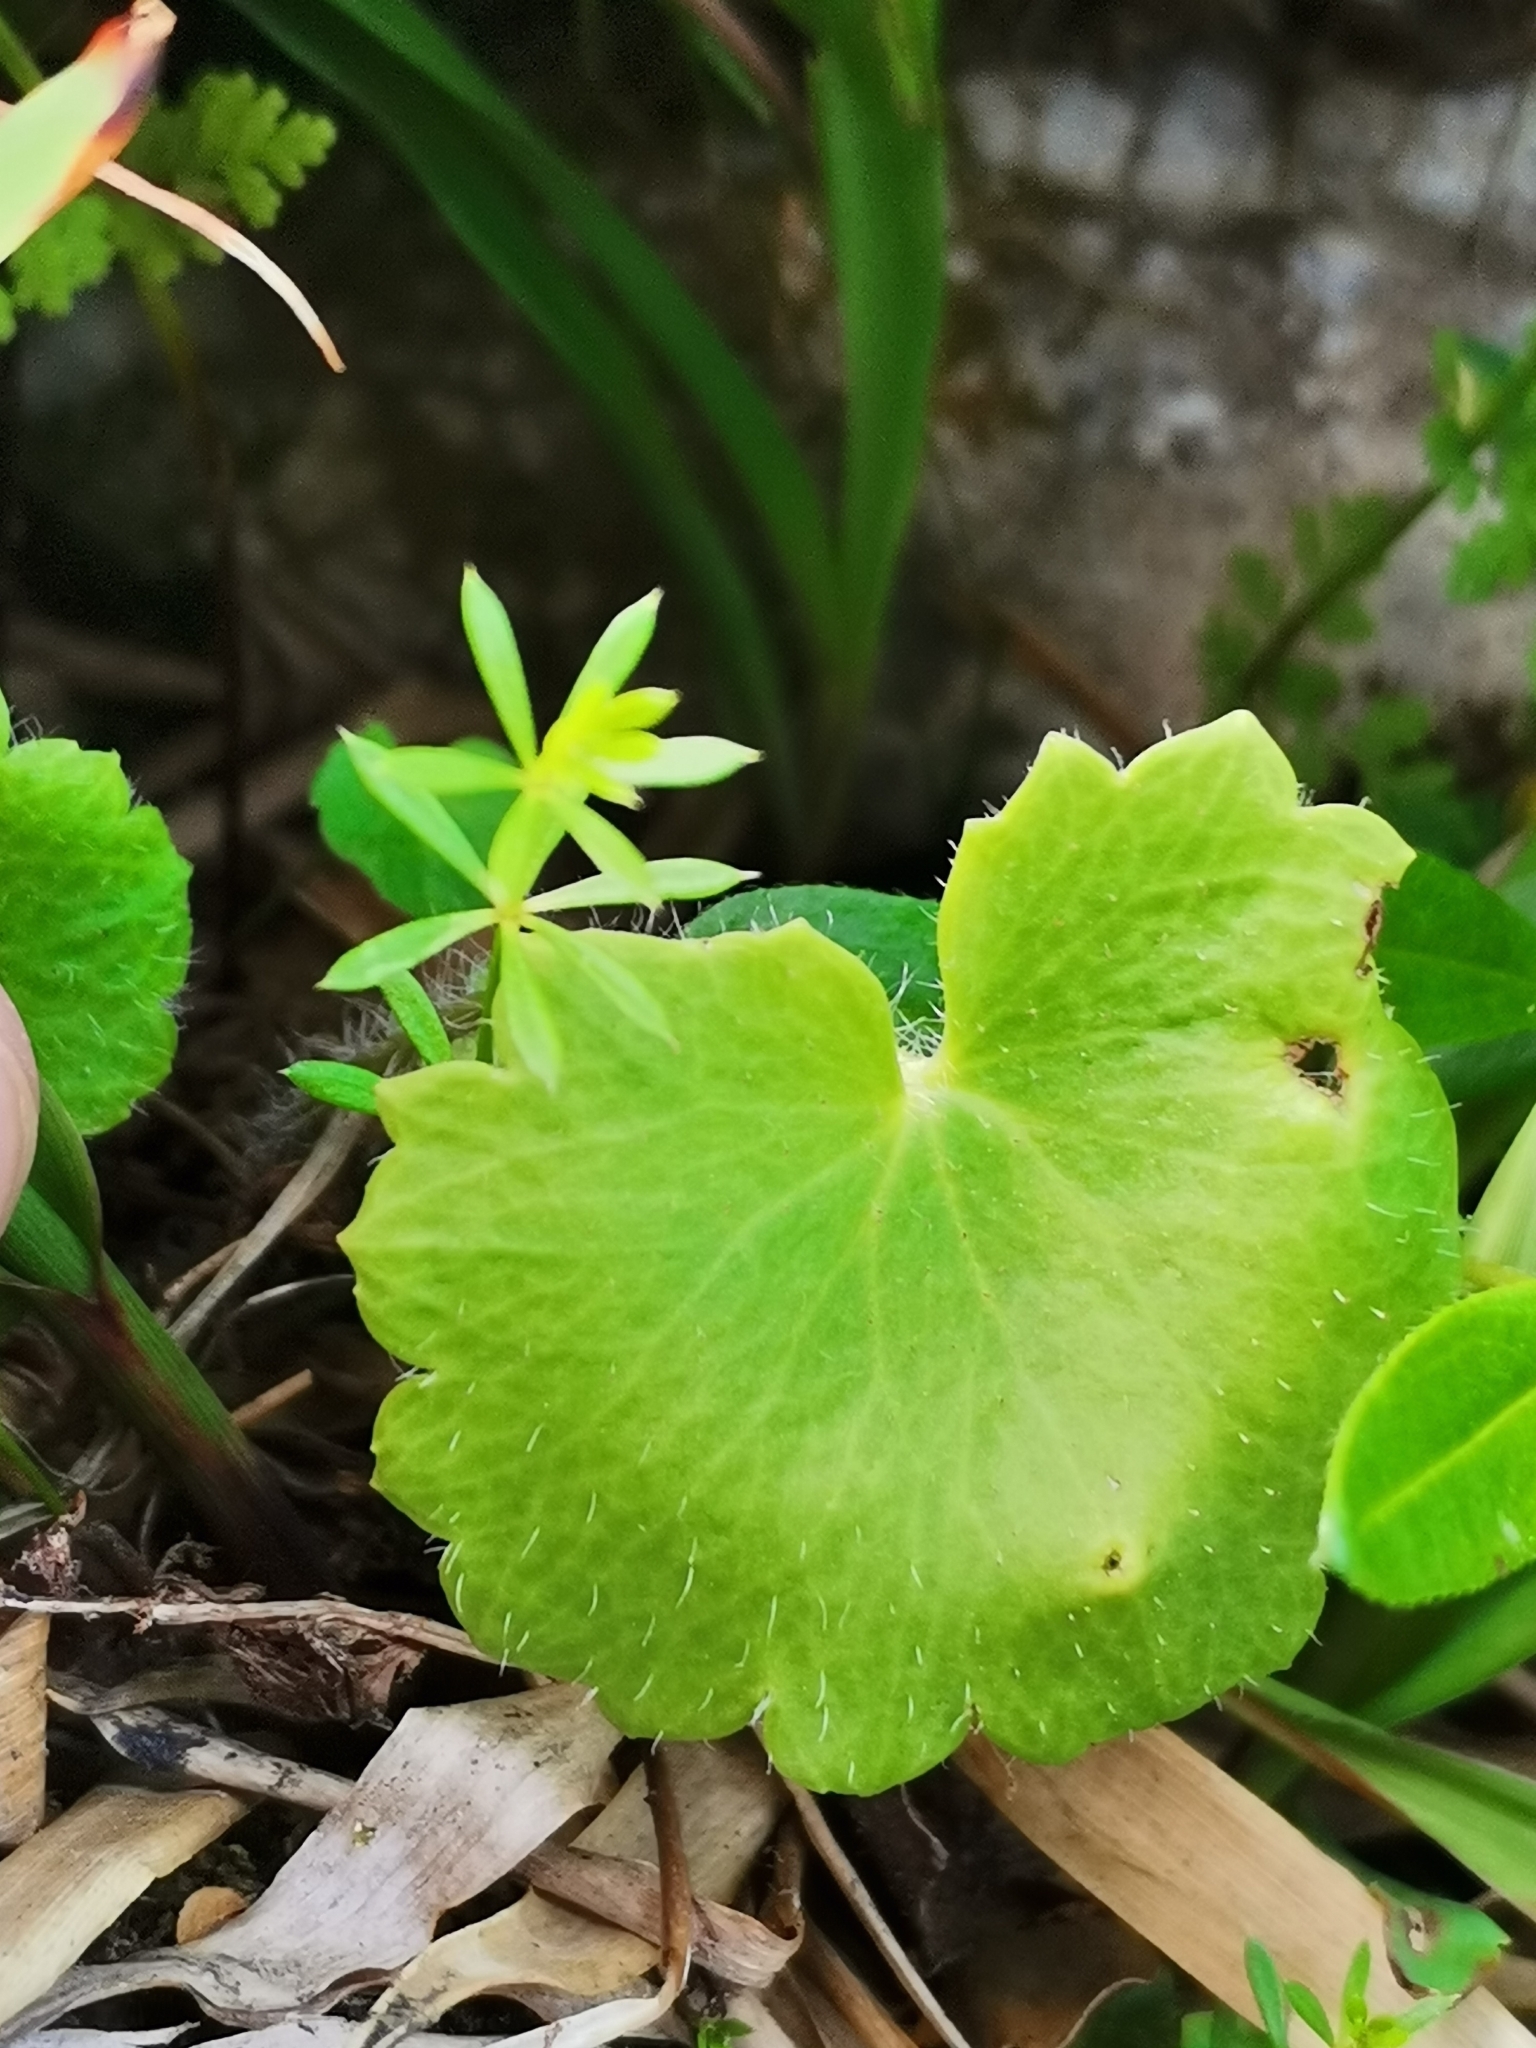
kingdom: Plantae
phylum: Tracheophyta
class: Magnoliopsida
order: Saxifragales
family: Saxifragaceae
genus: Saxifraga
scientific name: Saxifraga rotundifolia
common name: Round-leaved saxifrage
